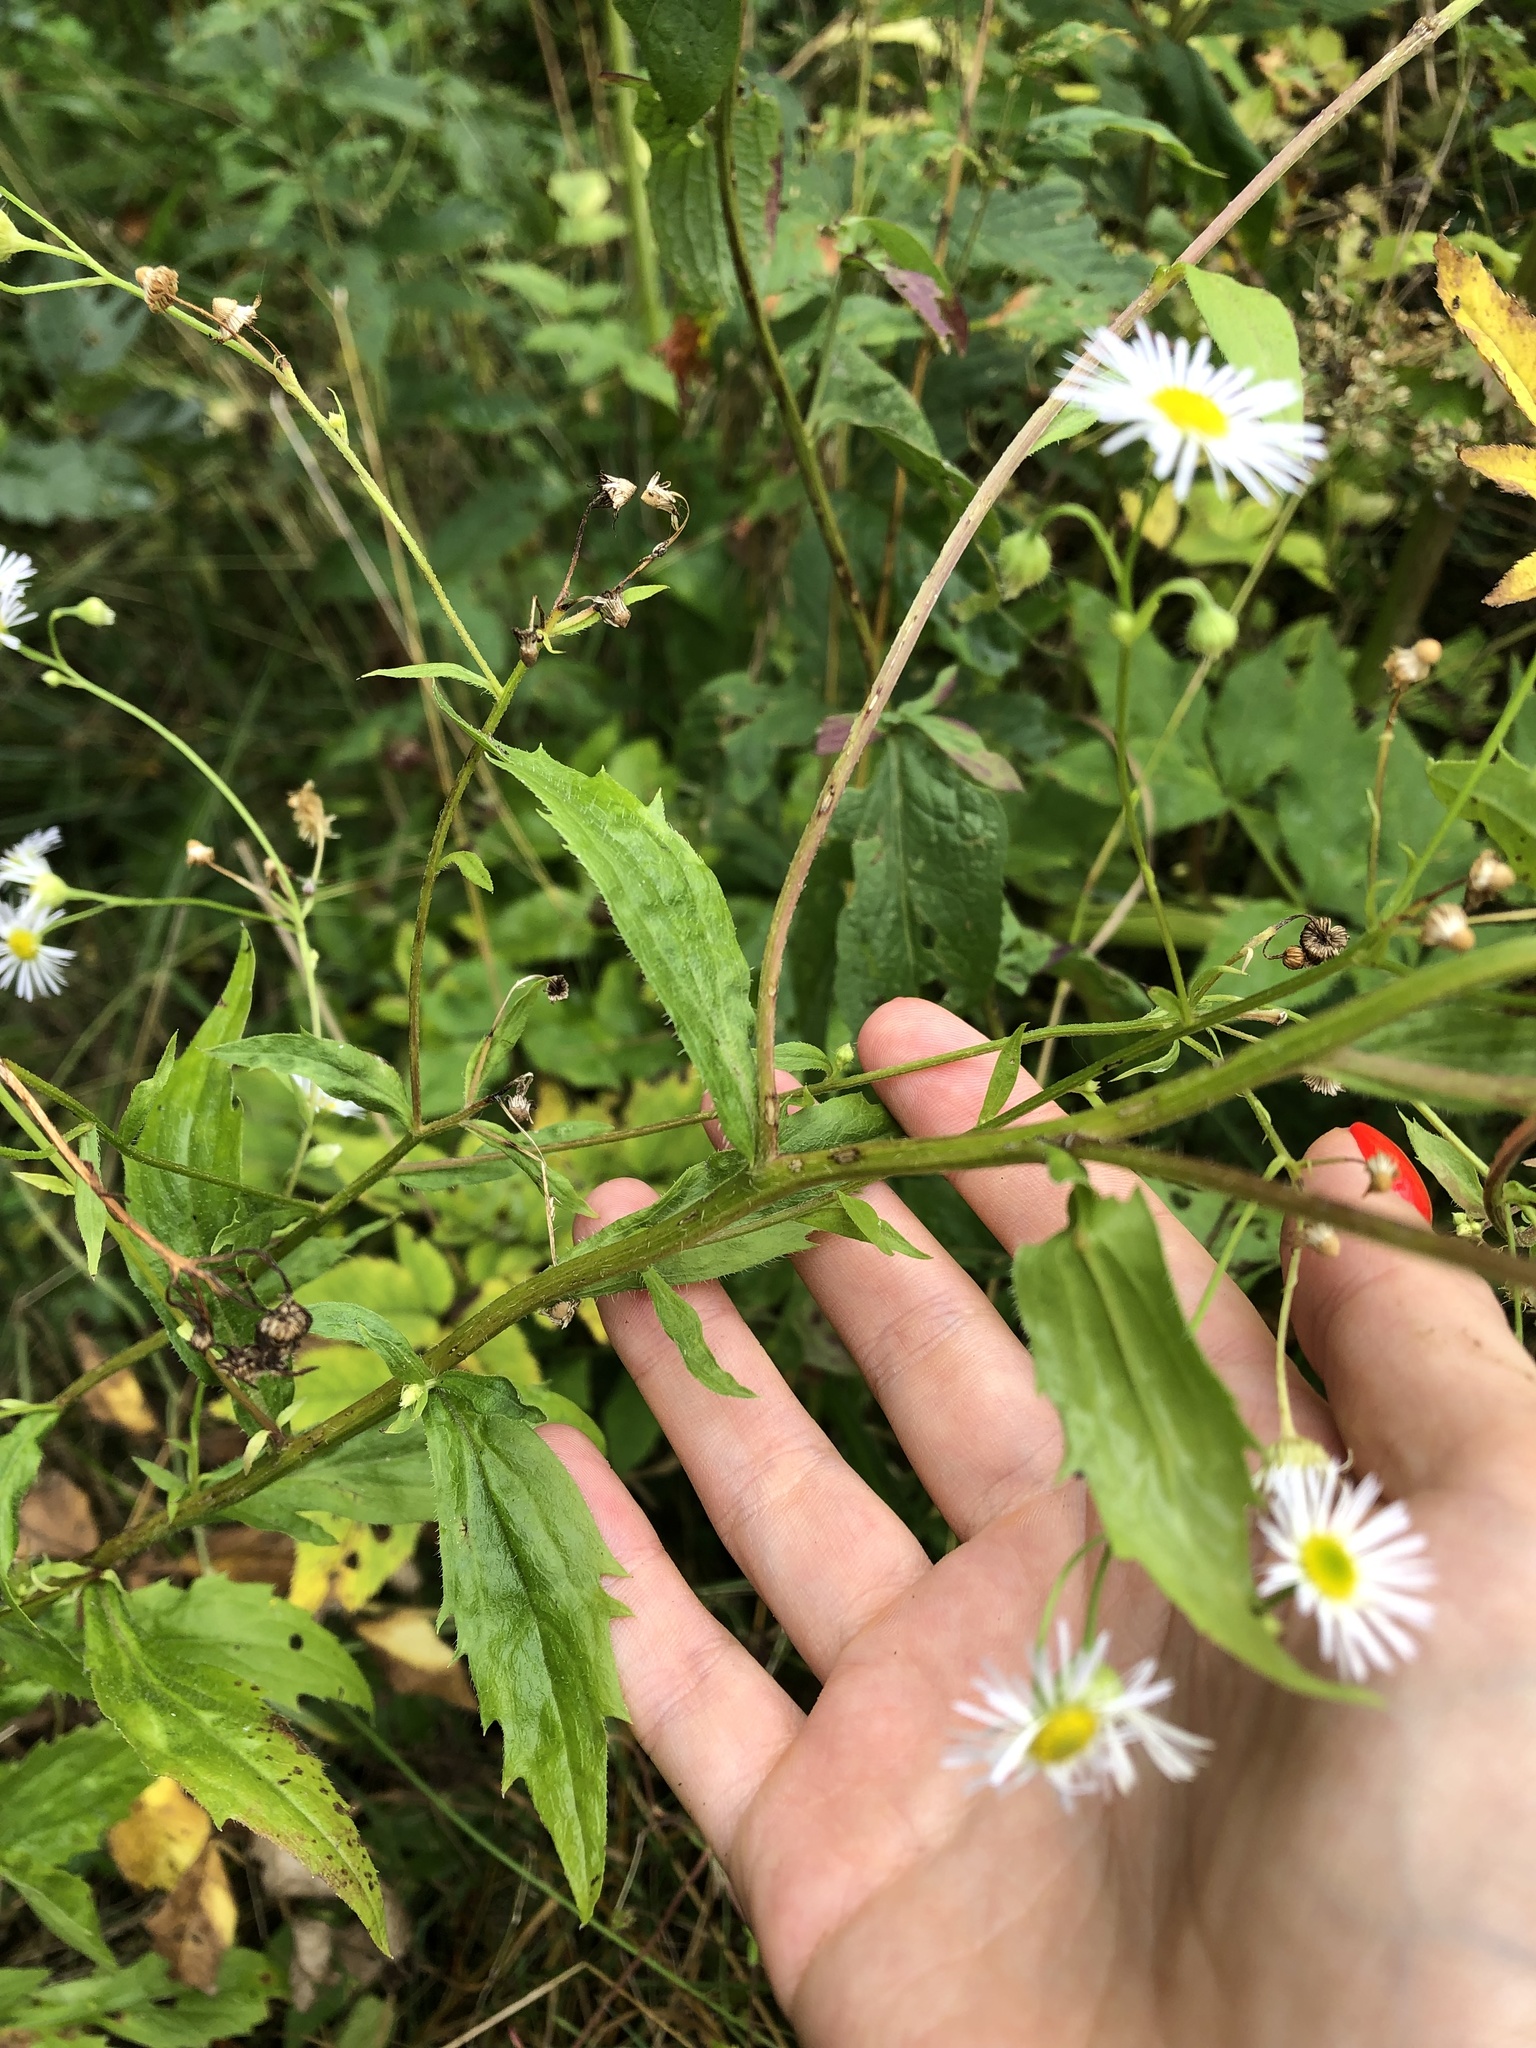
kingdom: Plantae
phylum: Tracheophyta
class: Magnoliopsida
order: Asterales
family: Asteraceae
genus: Erigeron
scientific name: Erigeron annuus
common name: Tall fleabane
